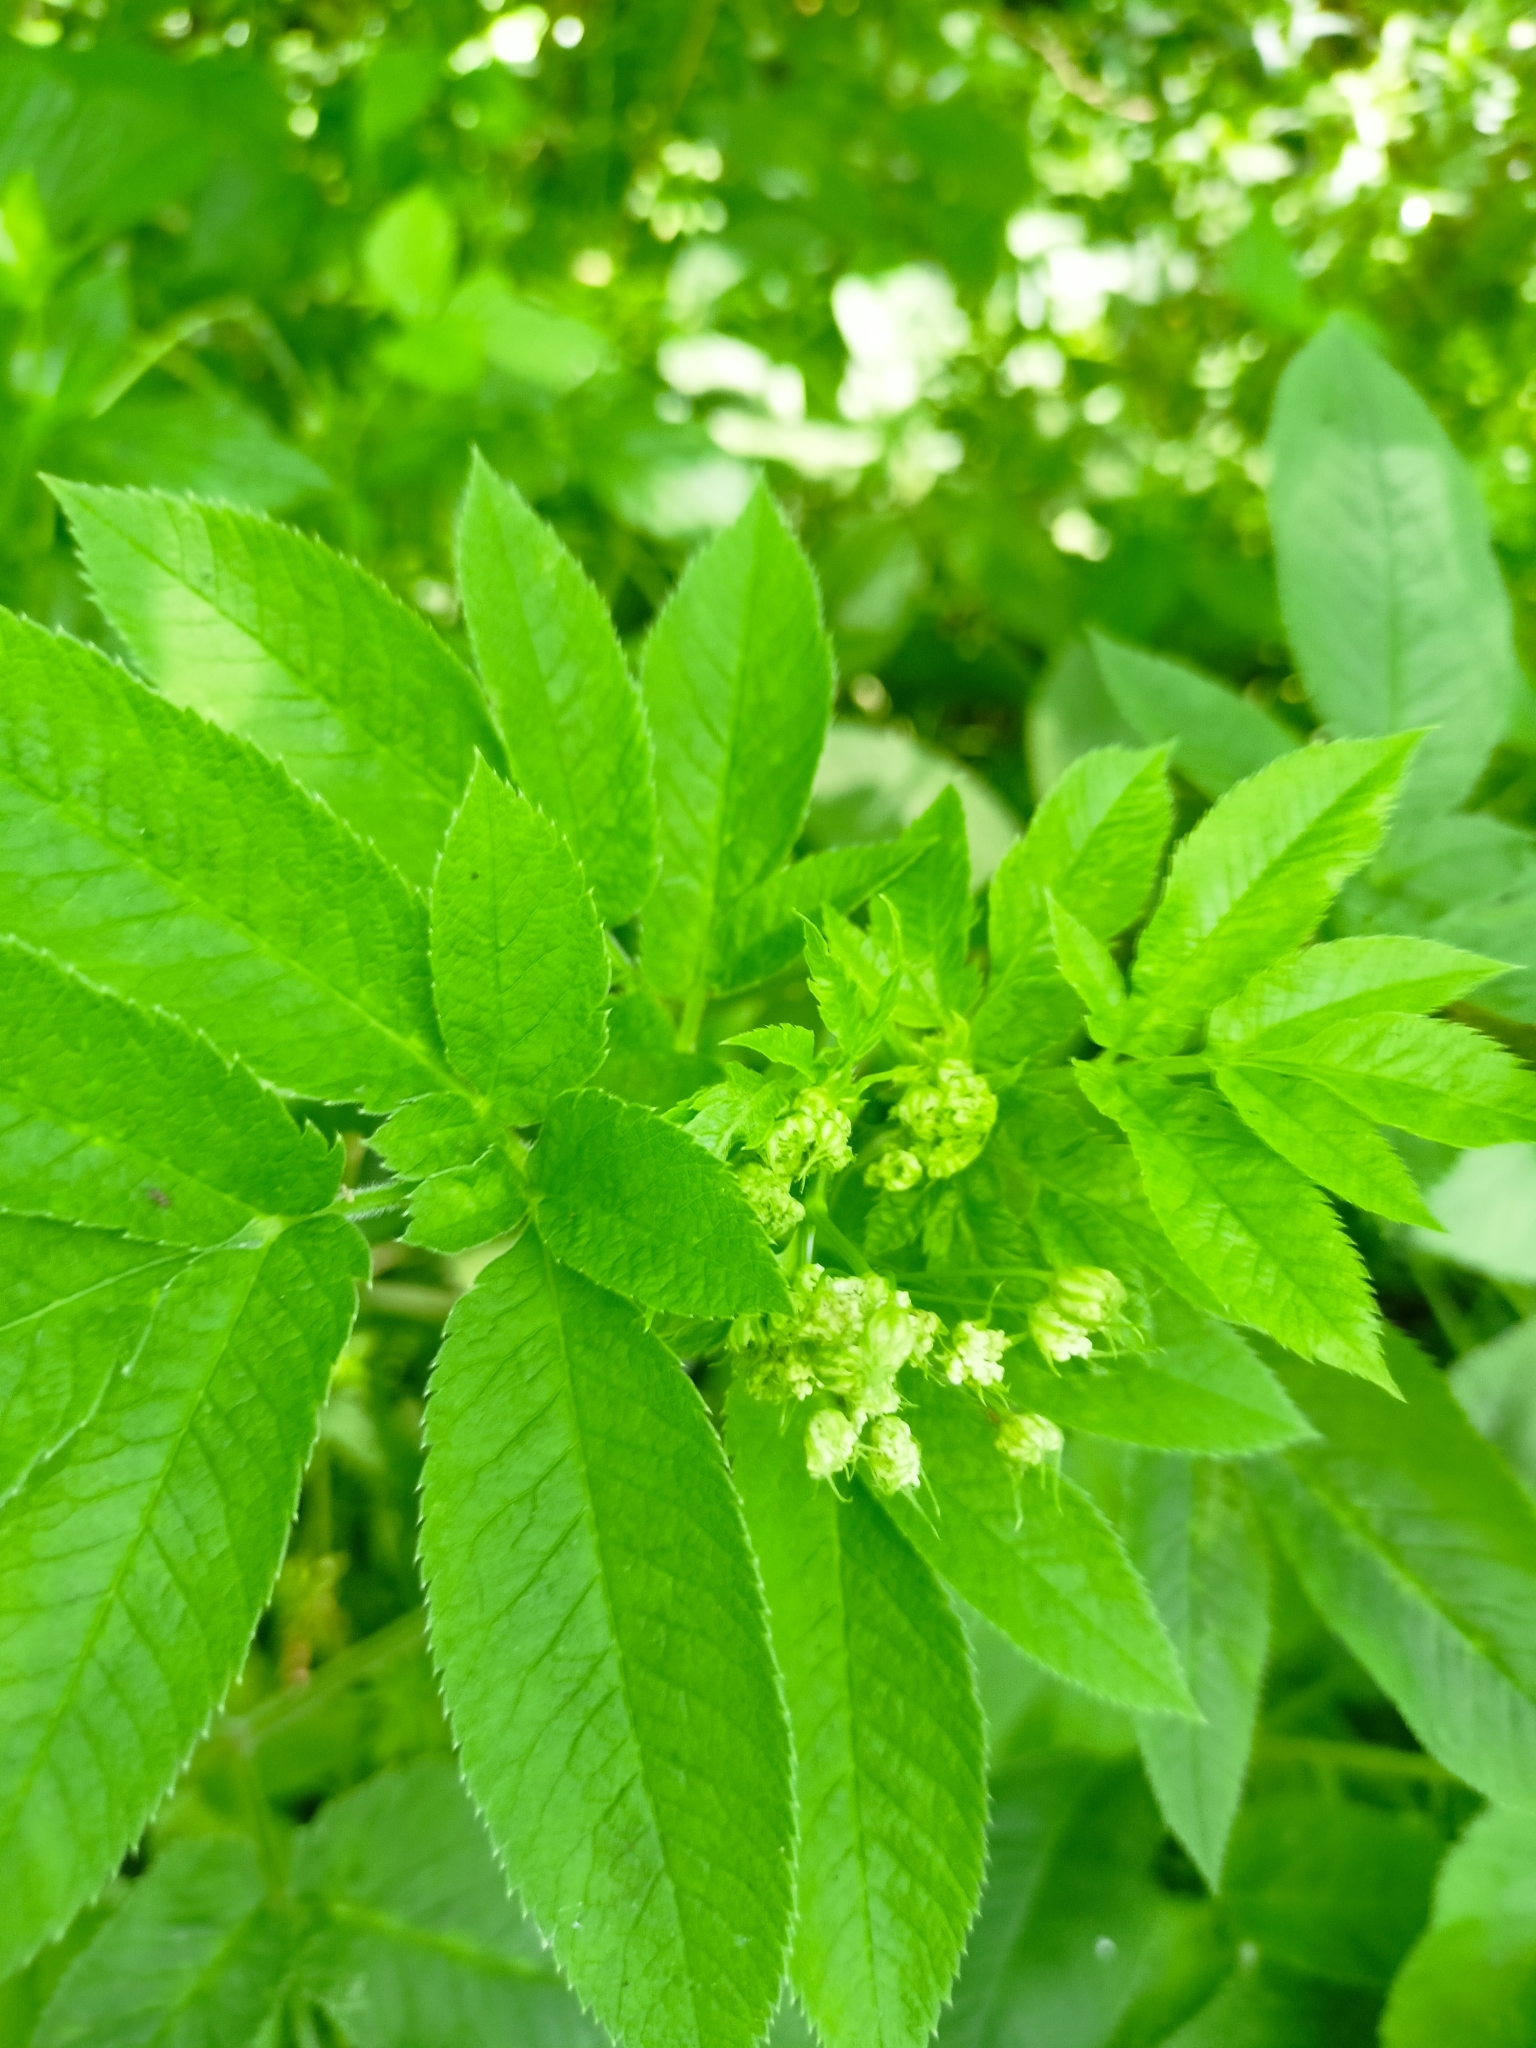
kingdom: Plantae
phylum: Tracheophyta
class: Magnoliopsida
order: Apiales
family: Apiaceae
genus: Chaerophyllum
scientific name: Chaerophyllum aromaticum
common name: Broadleaf chervil
